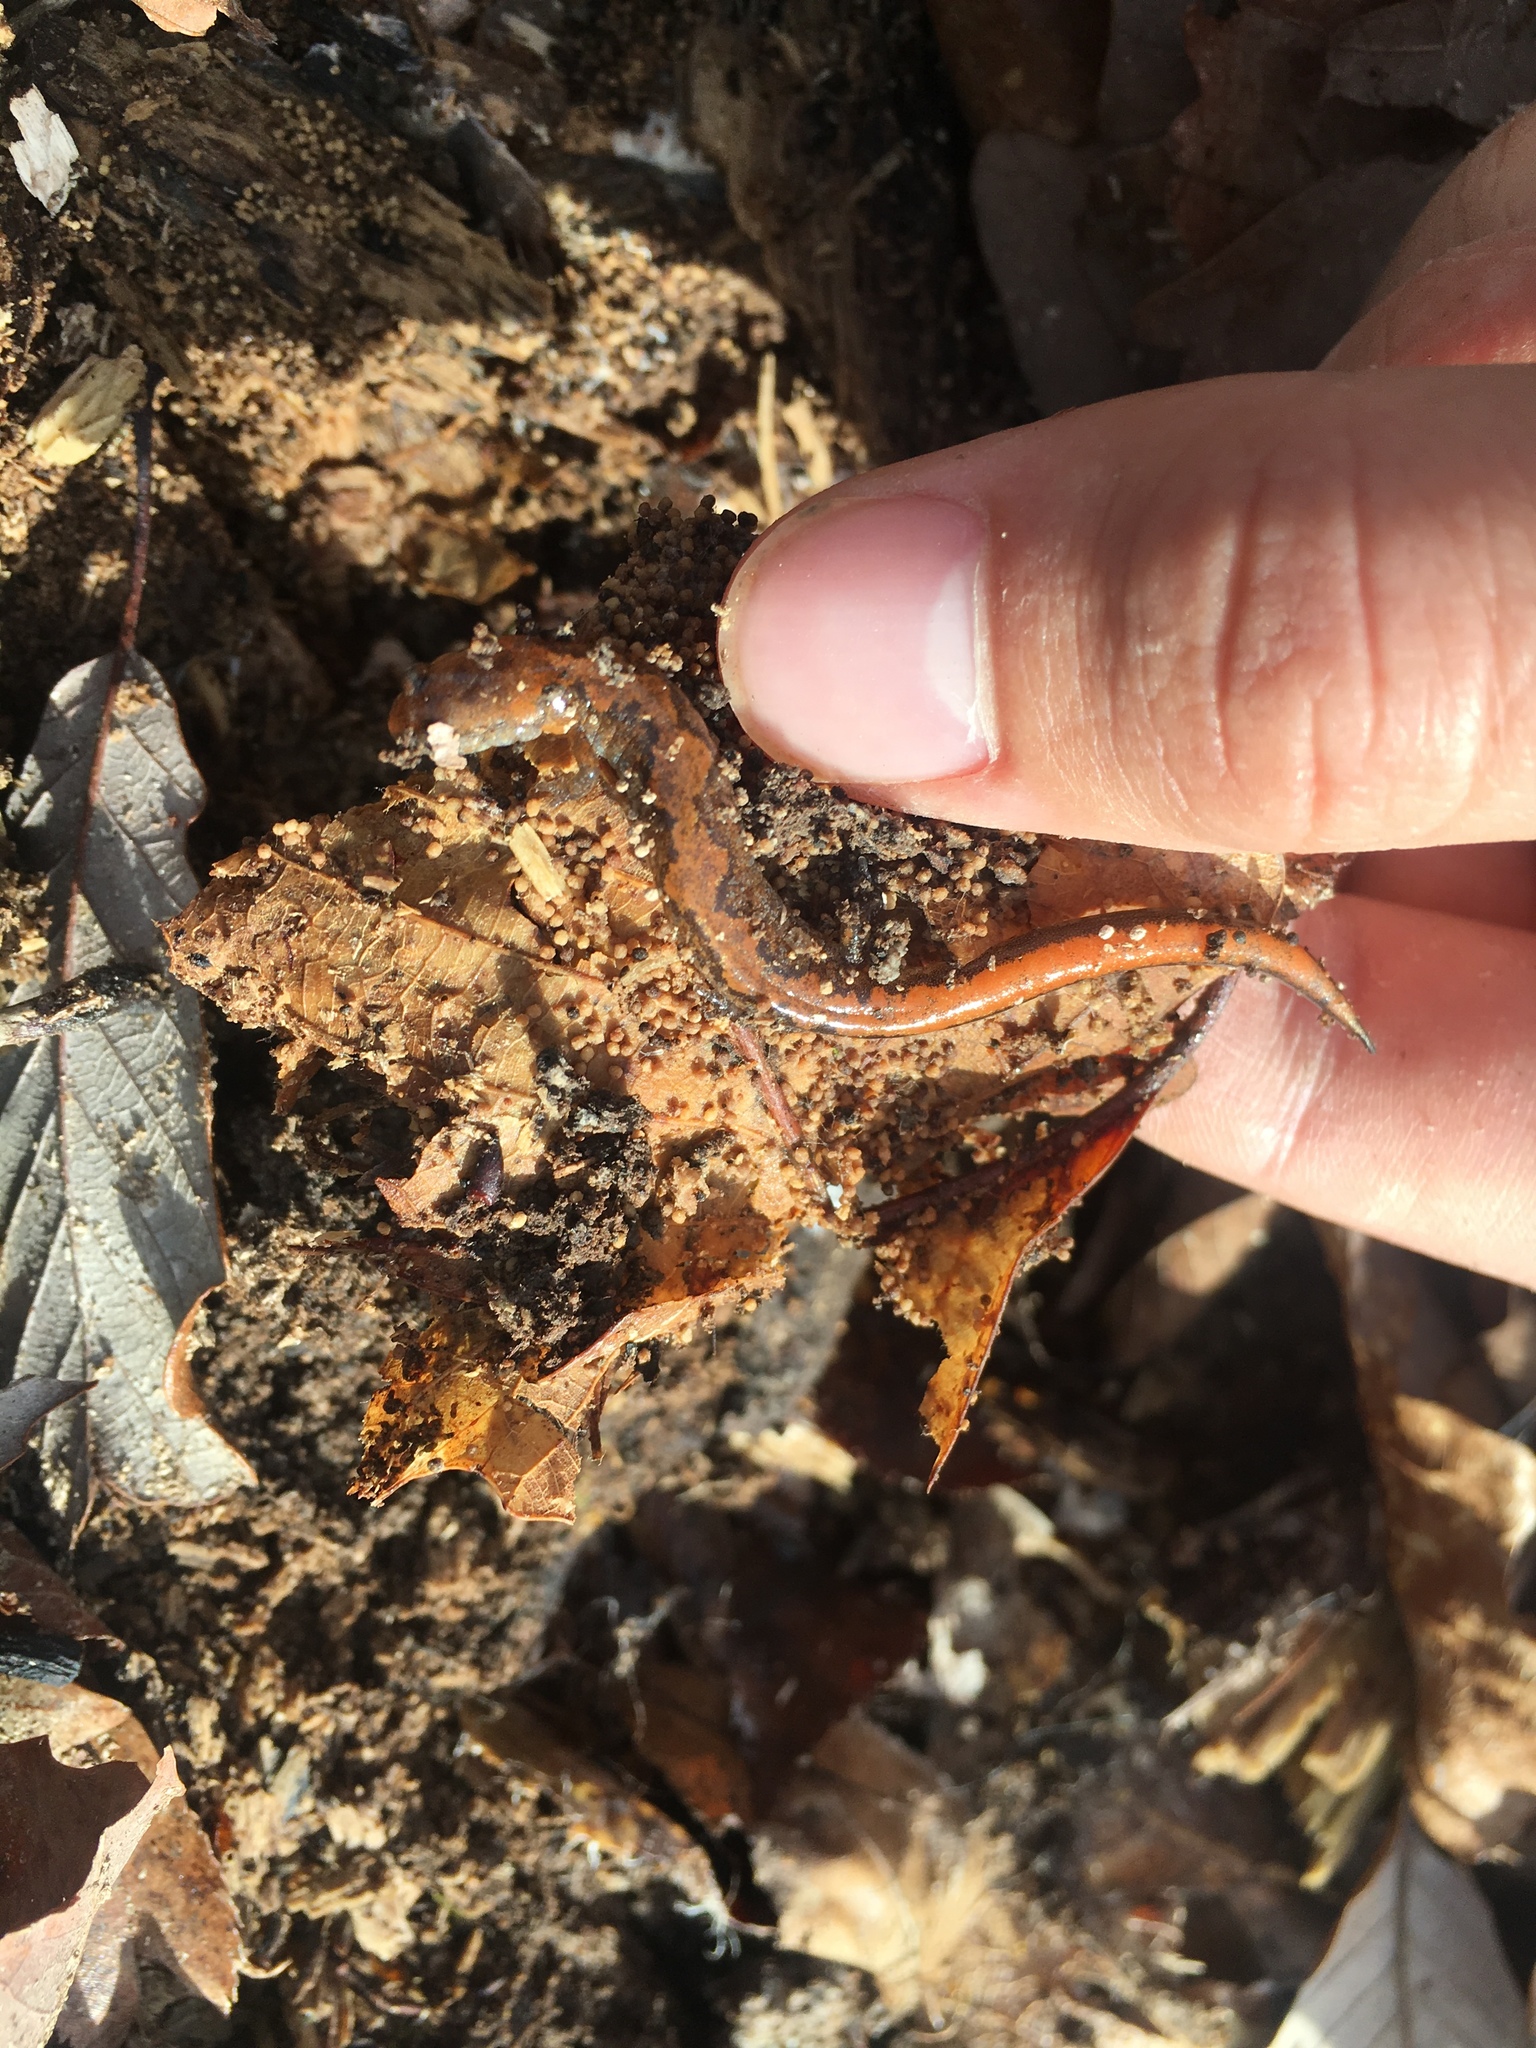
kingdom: Animalia
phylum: Chordata
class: Amphibia
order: Caudata
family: Plethodontidae
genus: Plethodon
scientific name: Plethodon dorsalis
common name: Northern zigzag salamander
